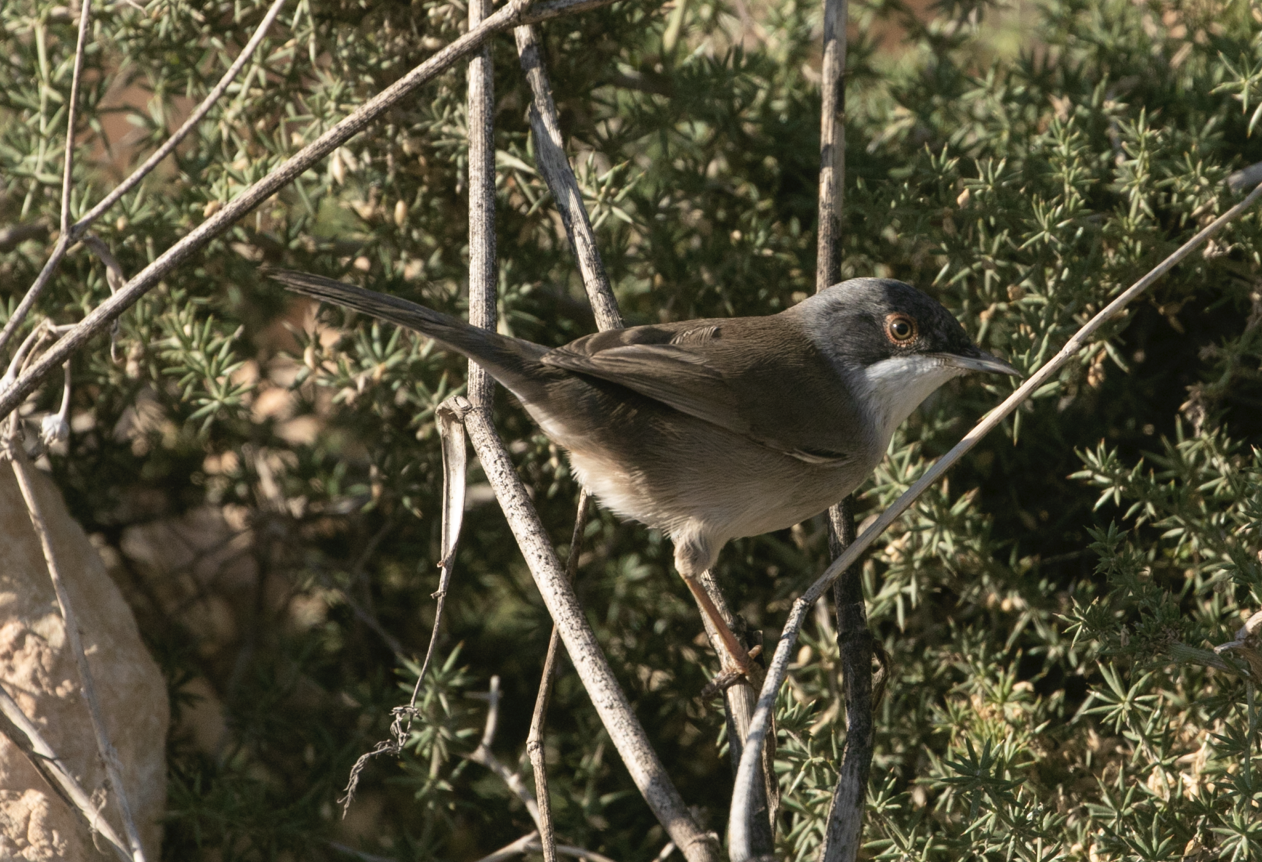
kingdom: Animalia
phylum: Chordata
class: Aves
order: Passeriformes
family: Sylviidae
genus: Curruca
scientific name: Curruca melanocephala
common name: Sardinian warbler
